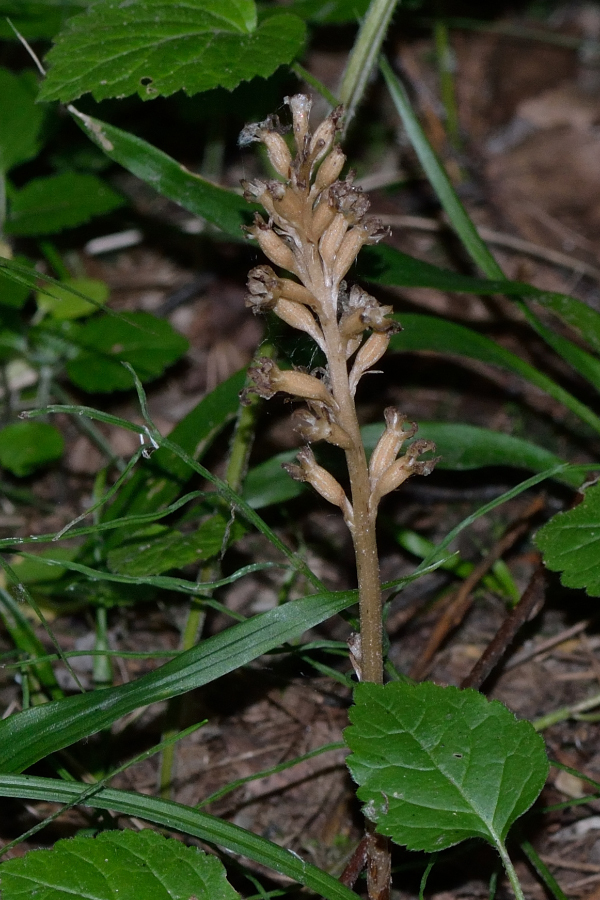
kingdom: Plantae
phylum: Tracheophyta
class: Liliopsida
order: Asparagales
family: Orchidaceae
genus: Neottia
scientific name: Neottia nidus-avis
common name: Bird's-nest orchid
